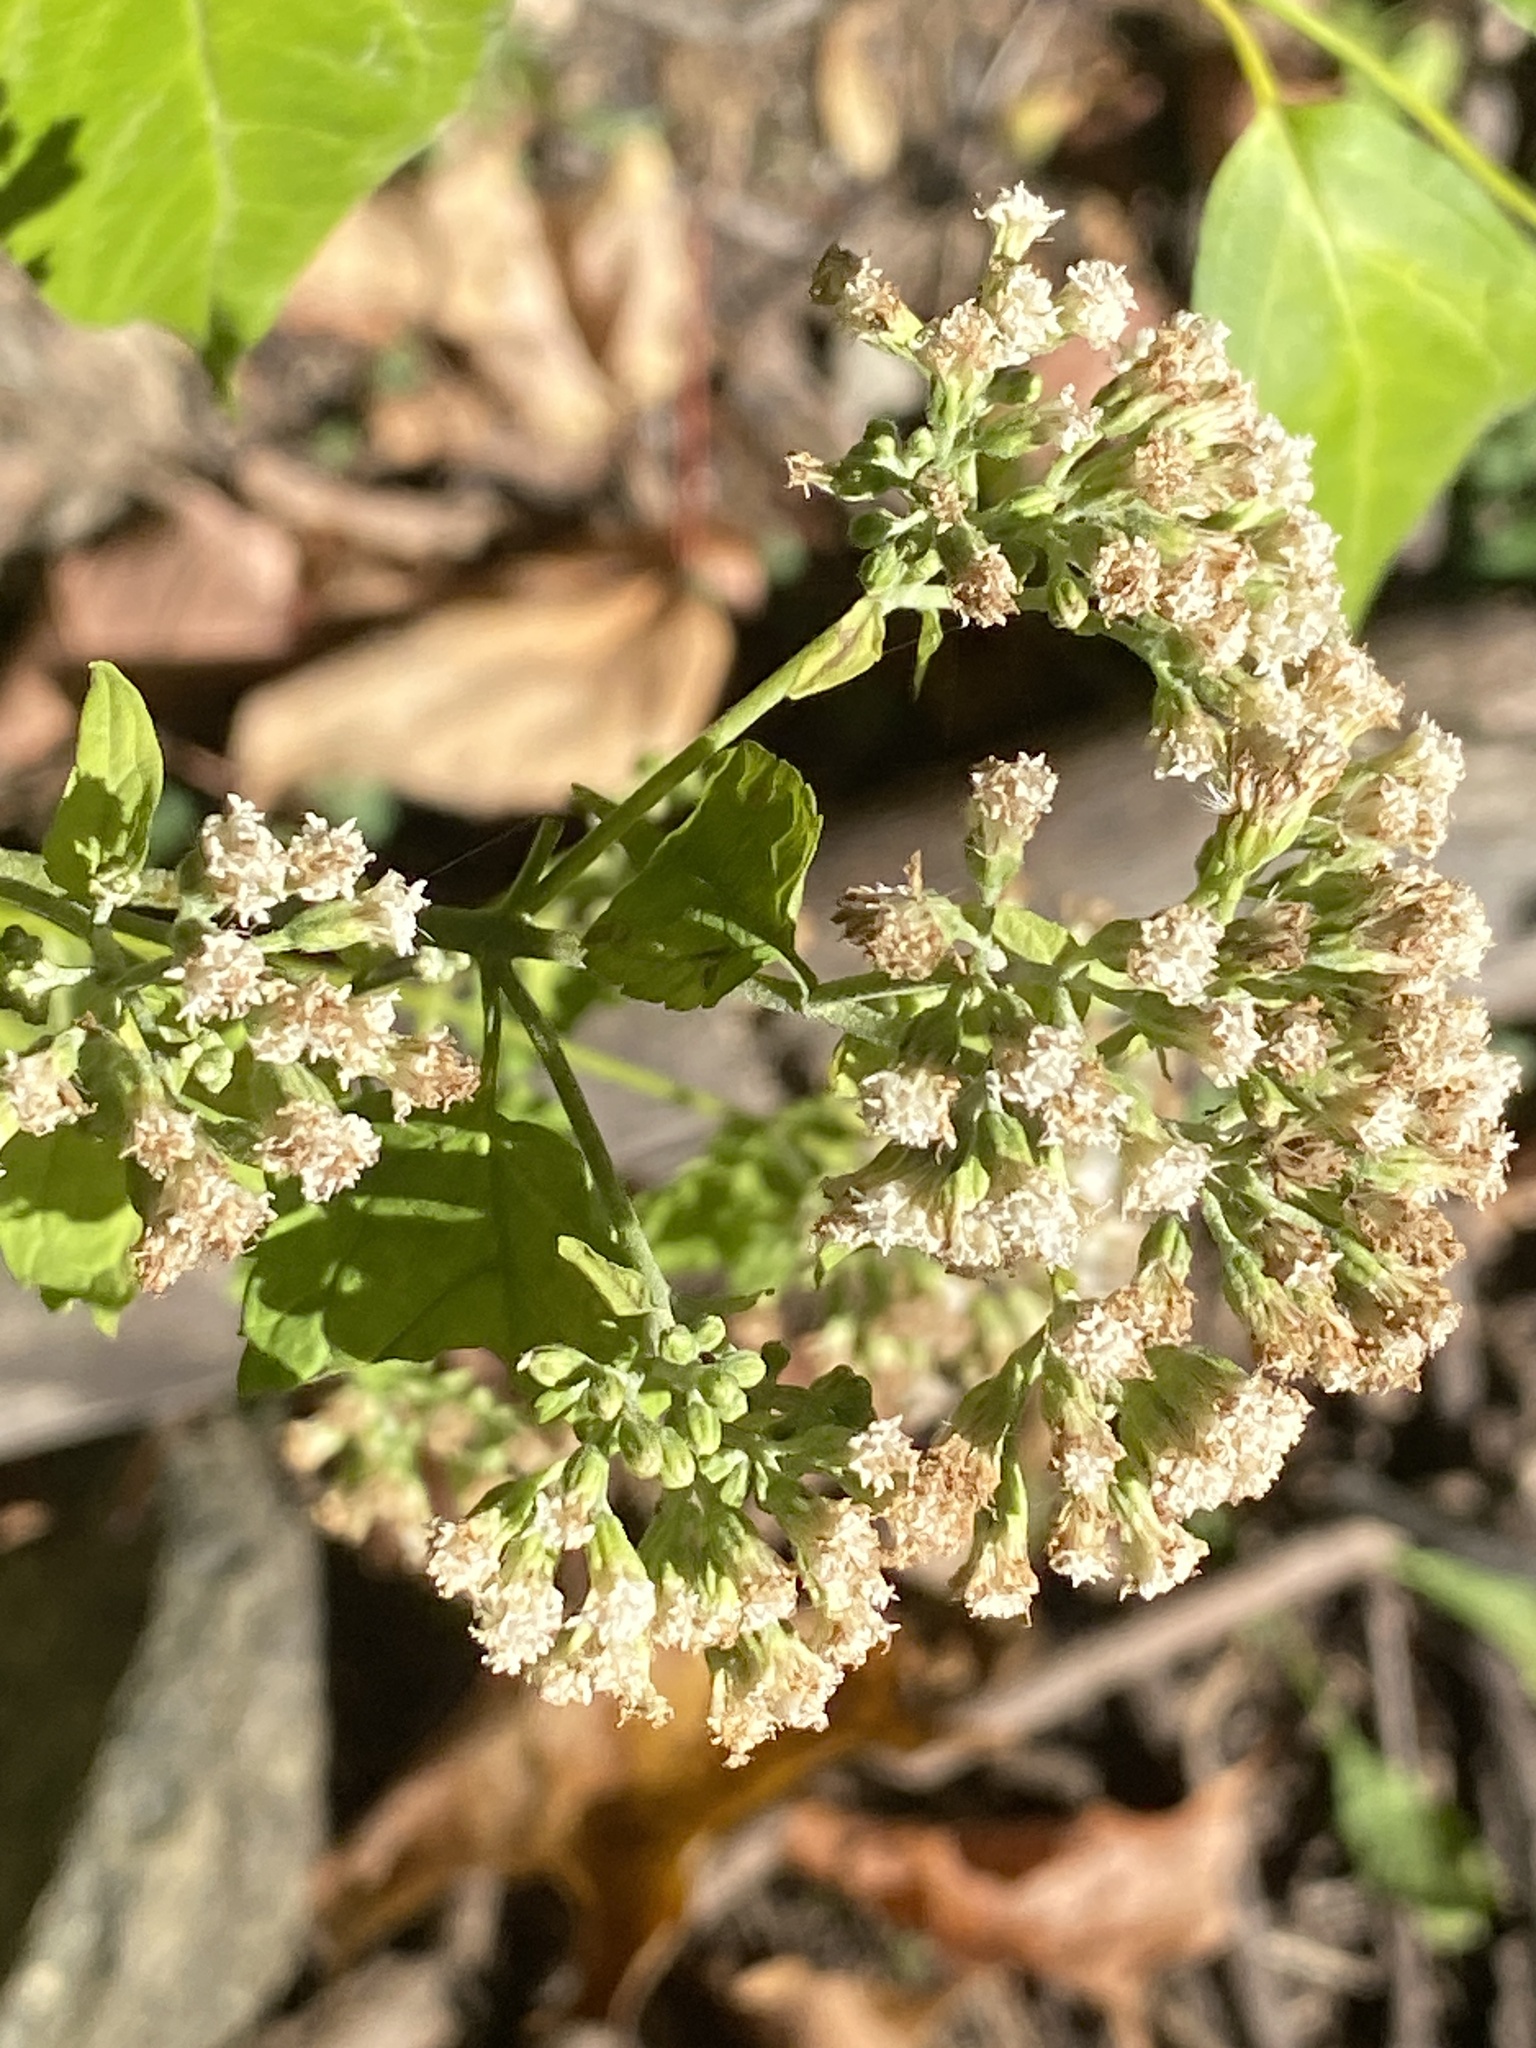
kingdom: Plantae
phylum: Tracheophyta
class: Magnoliopsida
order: Asterales
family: Asteraceae
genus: Ageratina
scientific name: Ageratina altissima
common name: White snakeroot
